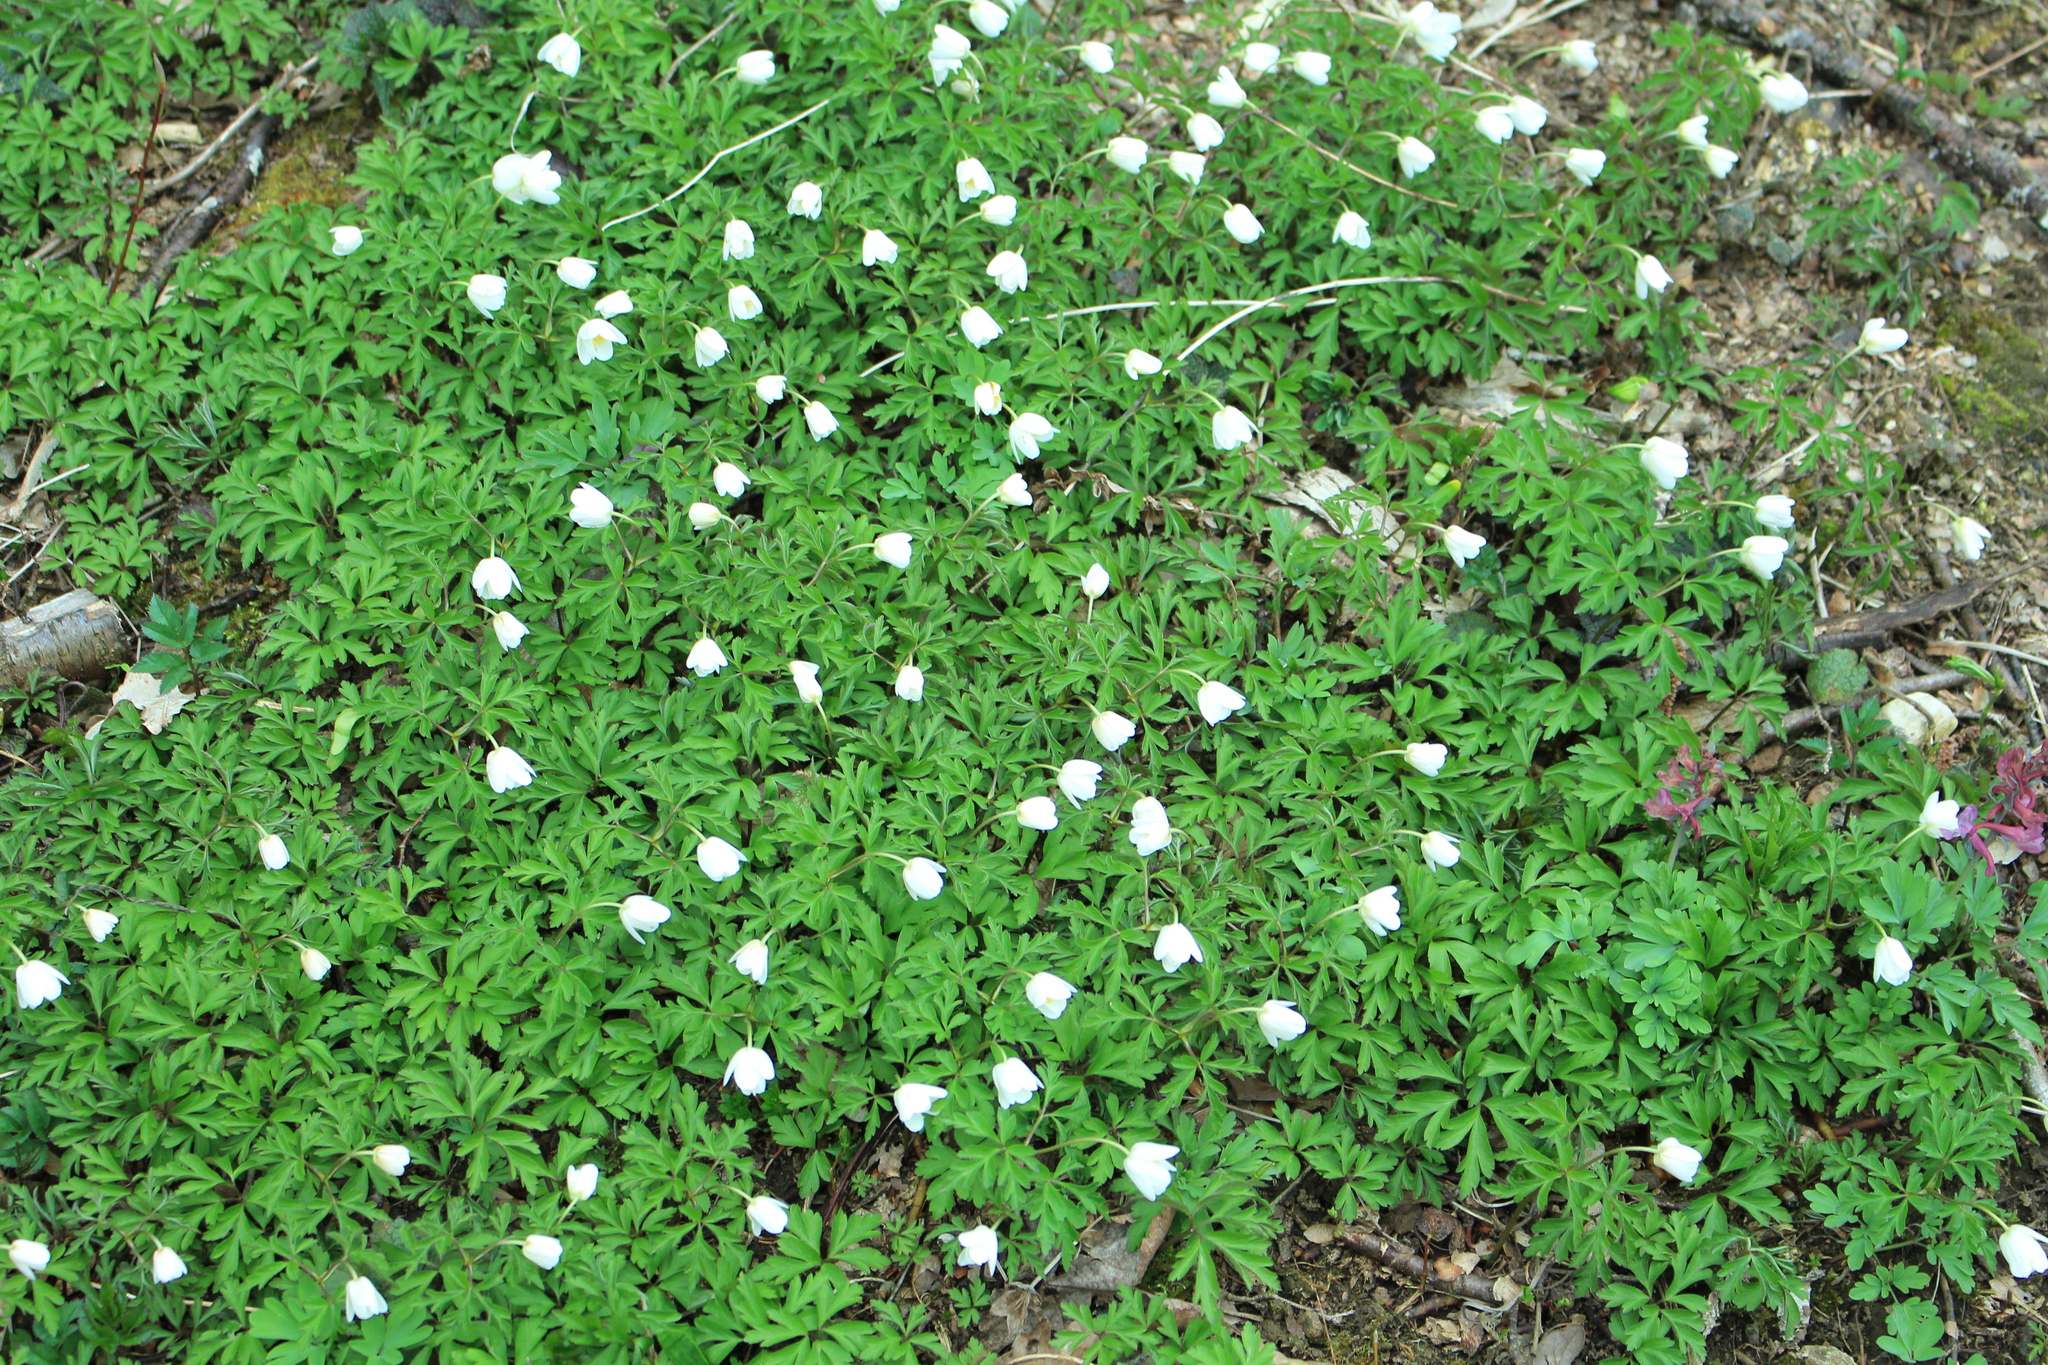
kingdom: Plantae
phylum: Tracheophyta
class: Magnoliopsida
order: Ranunculales
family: Ranunculaceae
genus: Anemone
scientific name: Anemone nemorosa
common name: Wood anemone
